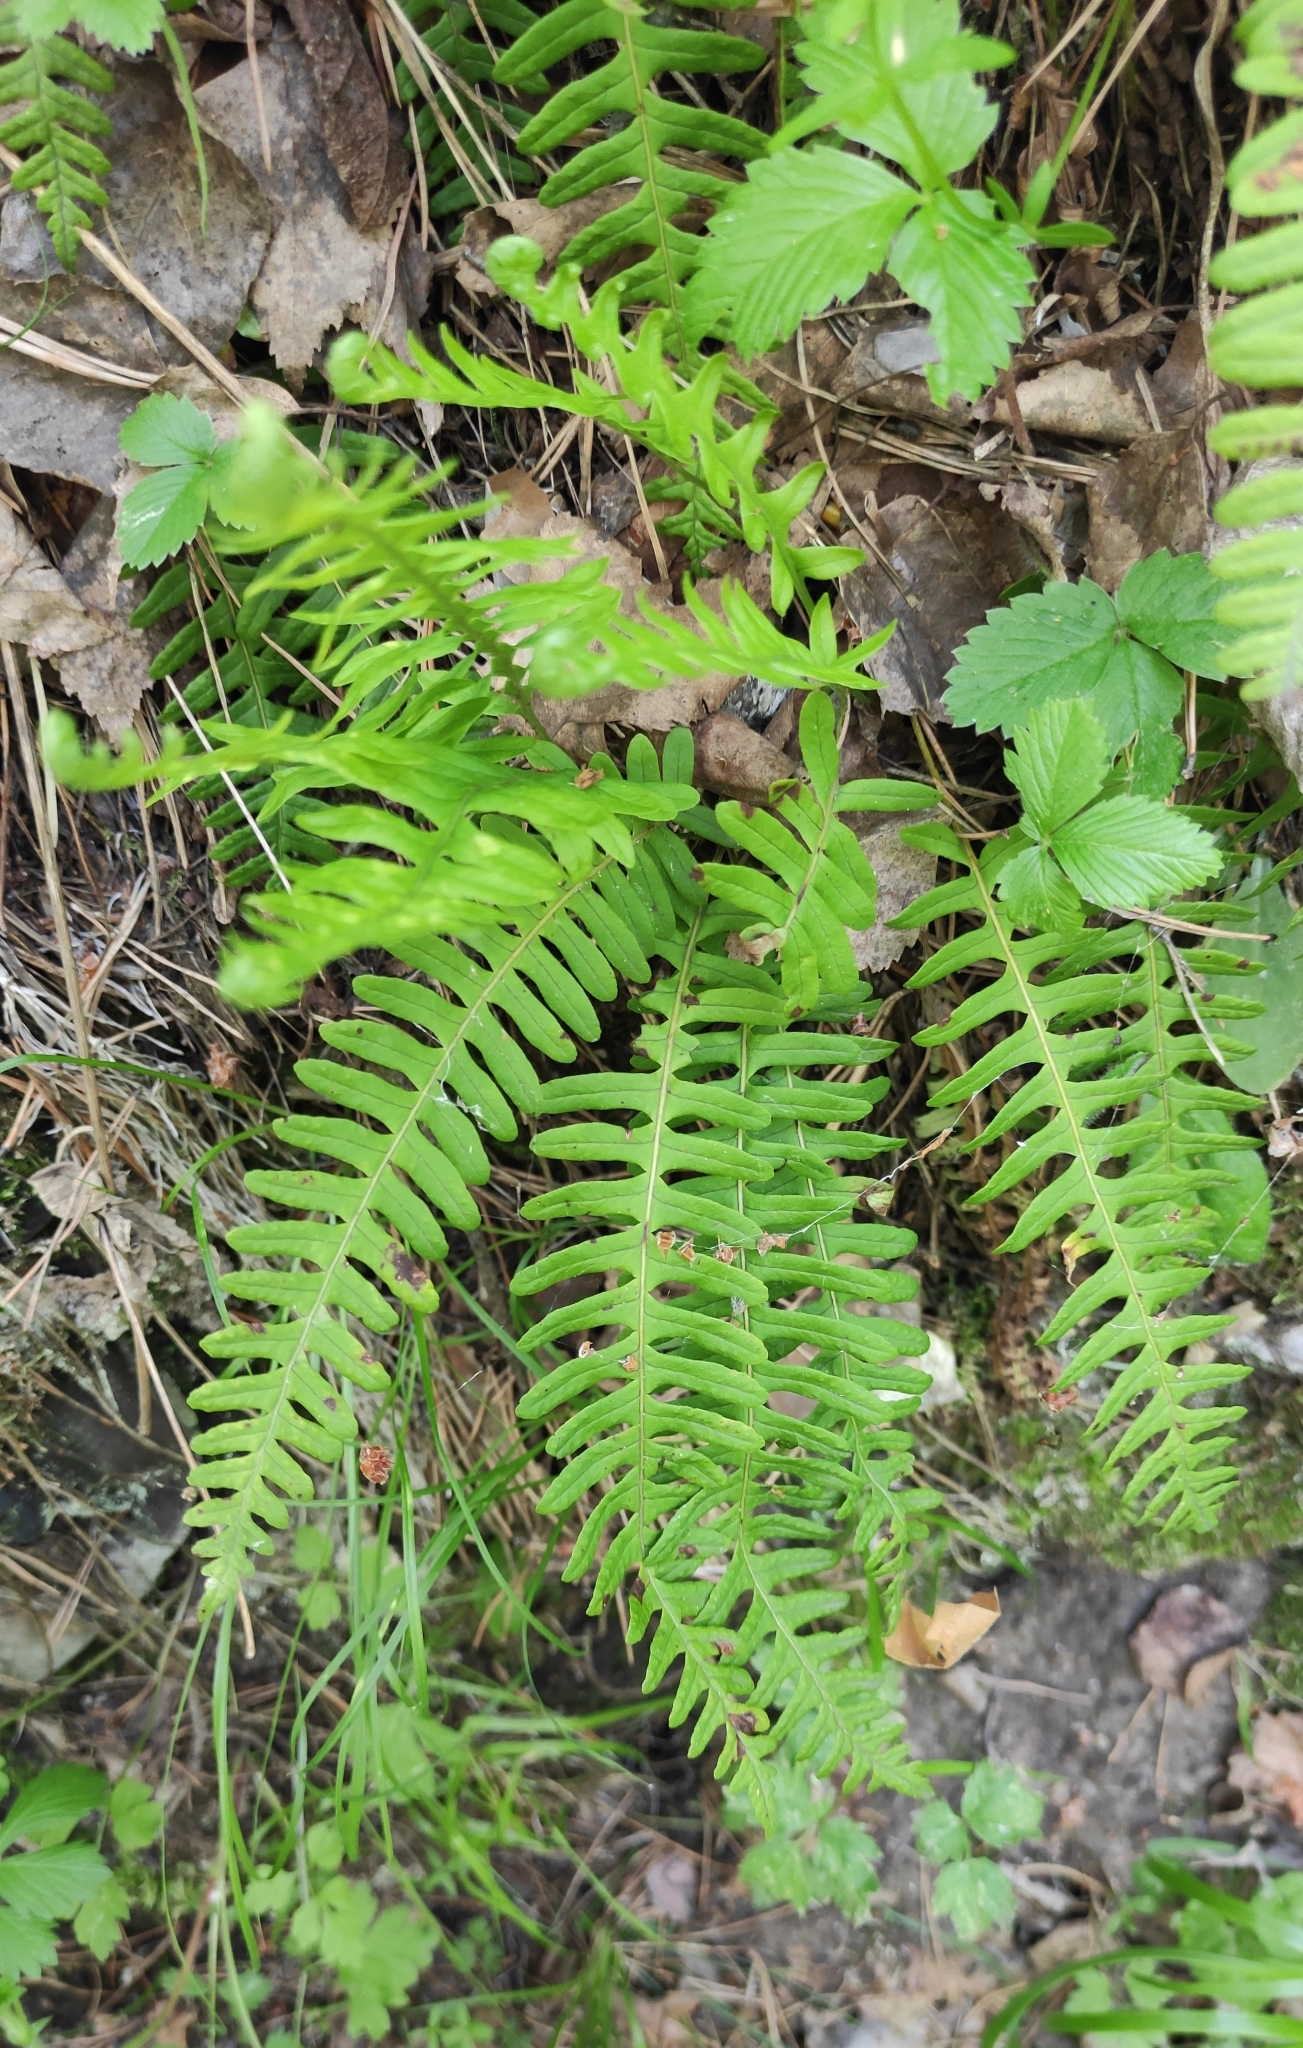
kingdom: Plantae
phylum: Tracheophyta
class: Polypodiopsida
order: Polypodiales
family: Polypodiaceae
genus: Polypodium
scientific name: Polypodium sibiricum
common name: Siberian polypody
